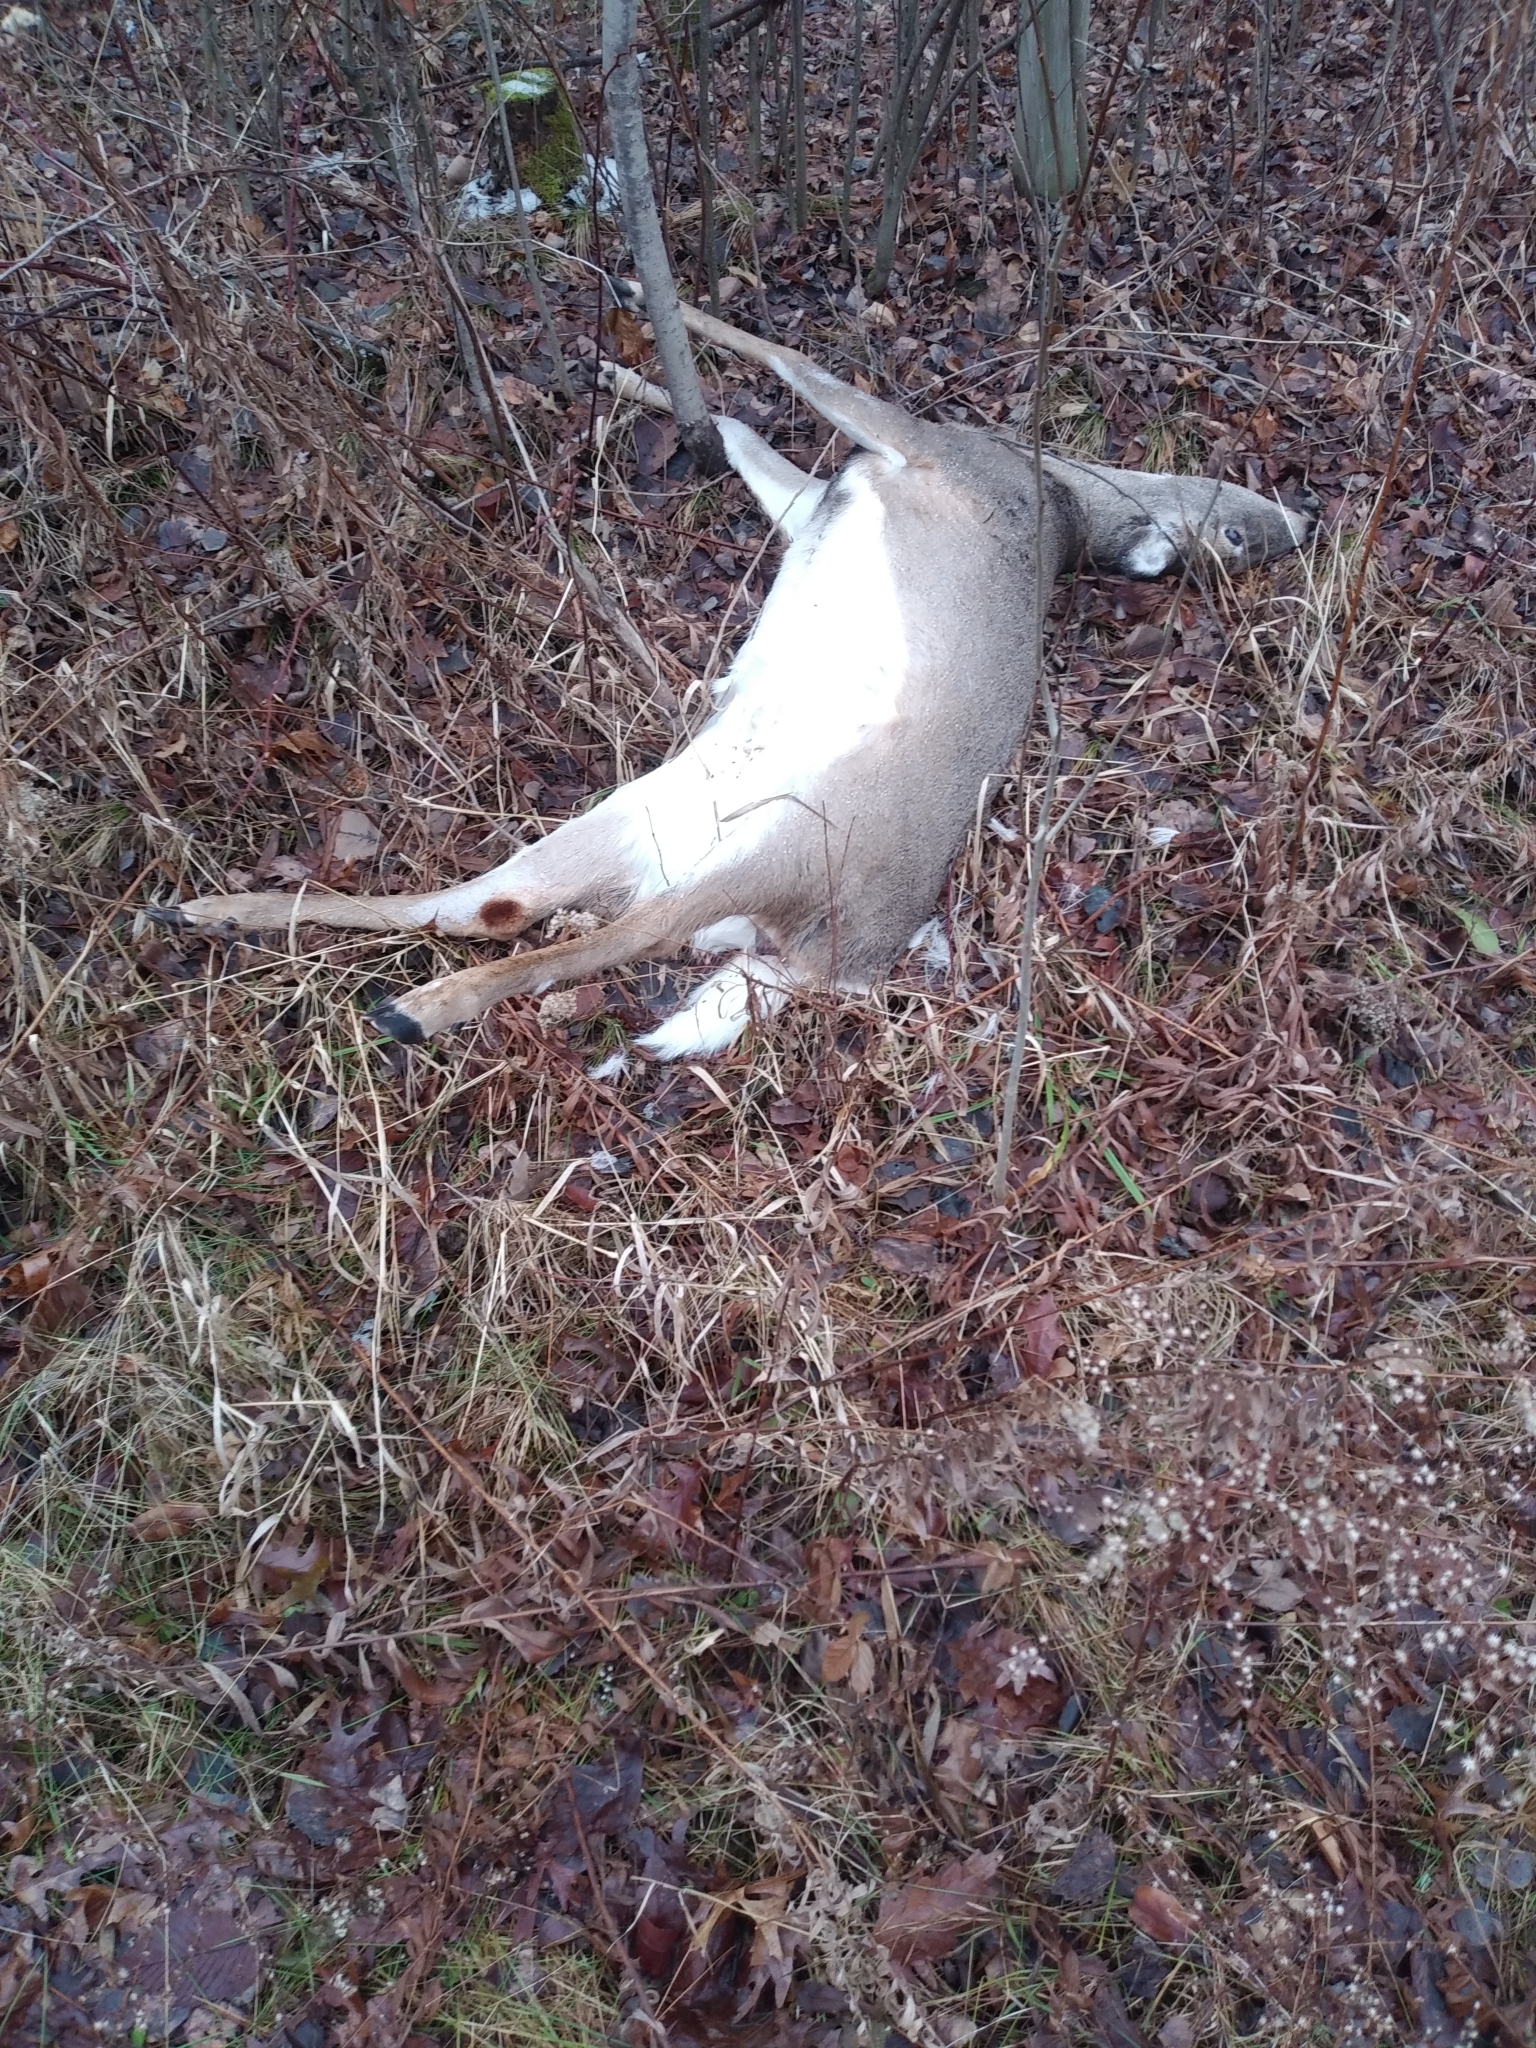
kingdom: Animalia
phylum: Chordata
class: Mammalia
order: Artiodactyla
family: Cervidae
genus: Odocoileus
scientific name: Odocoileus virginianus
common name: White-tailed deer
